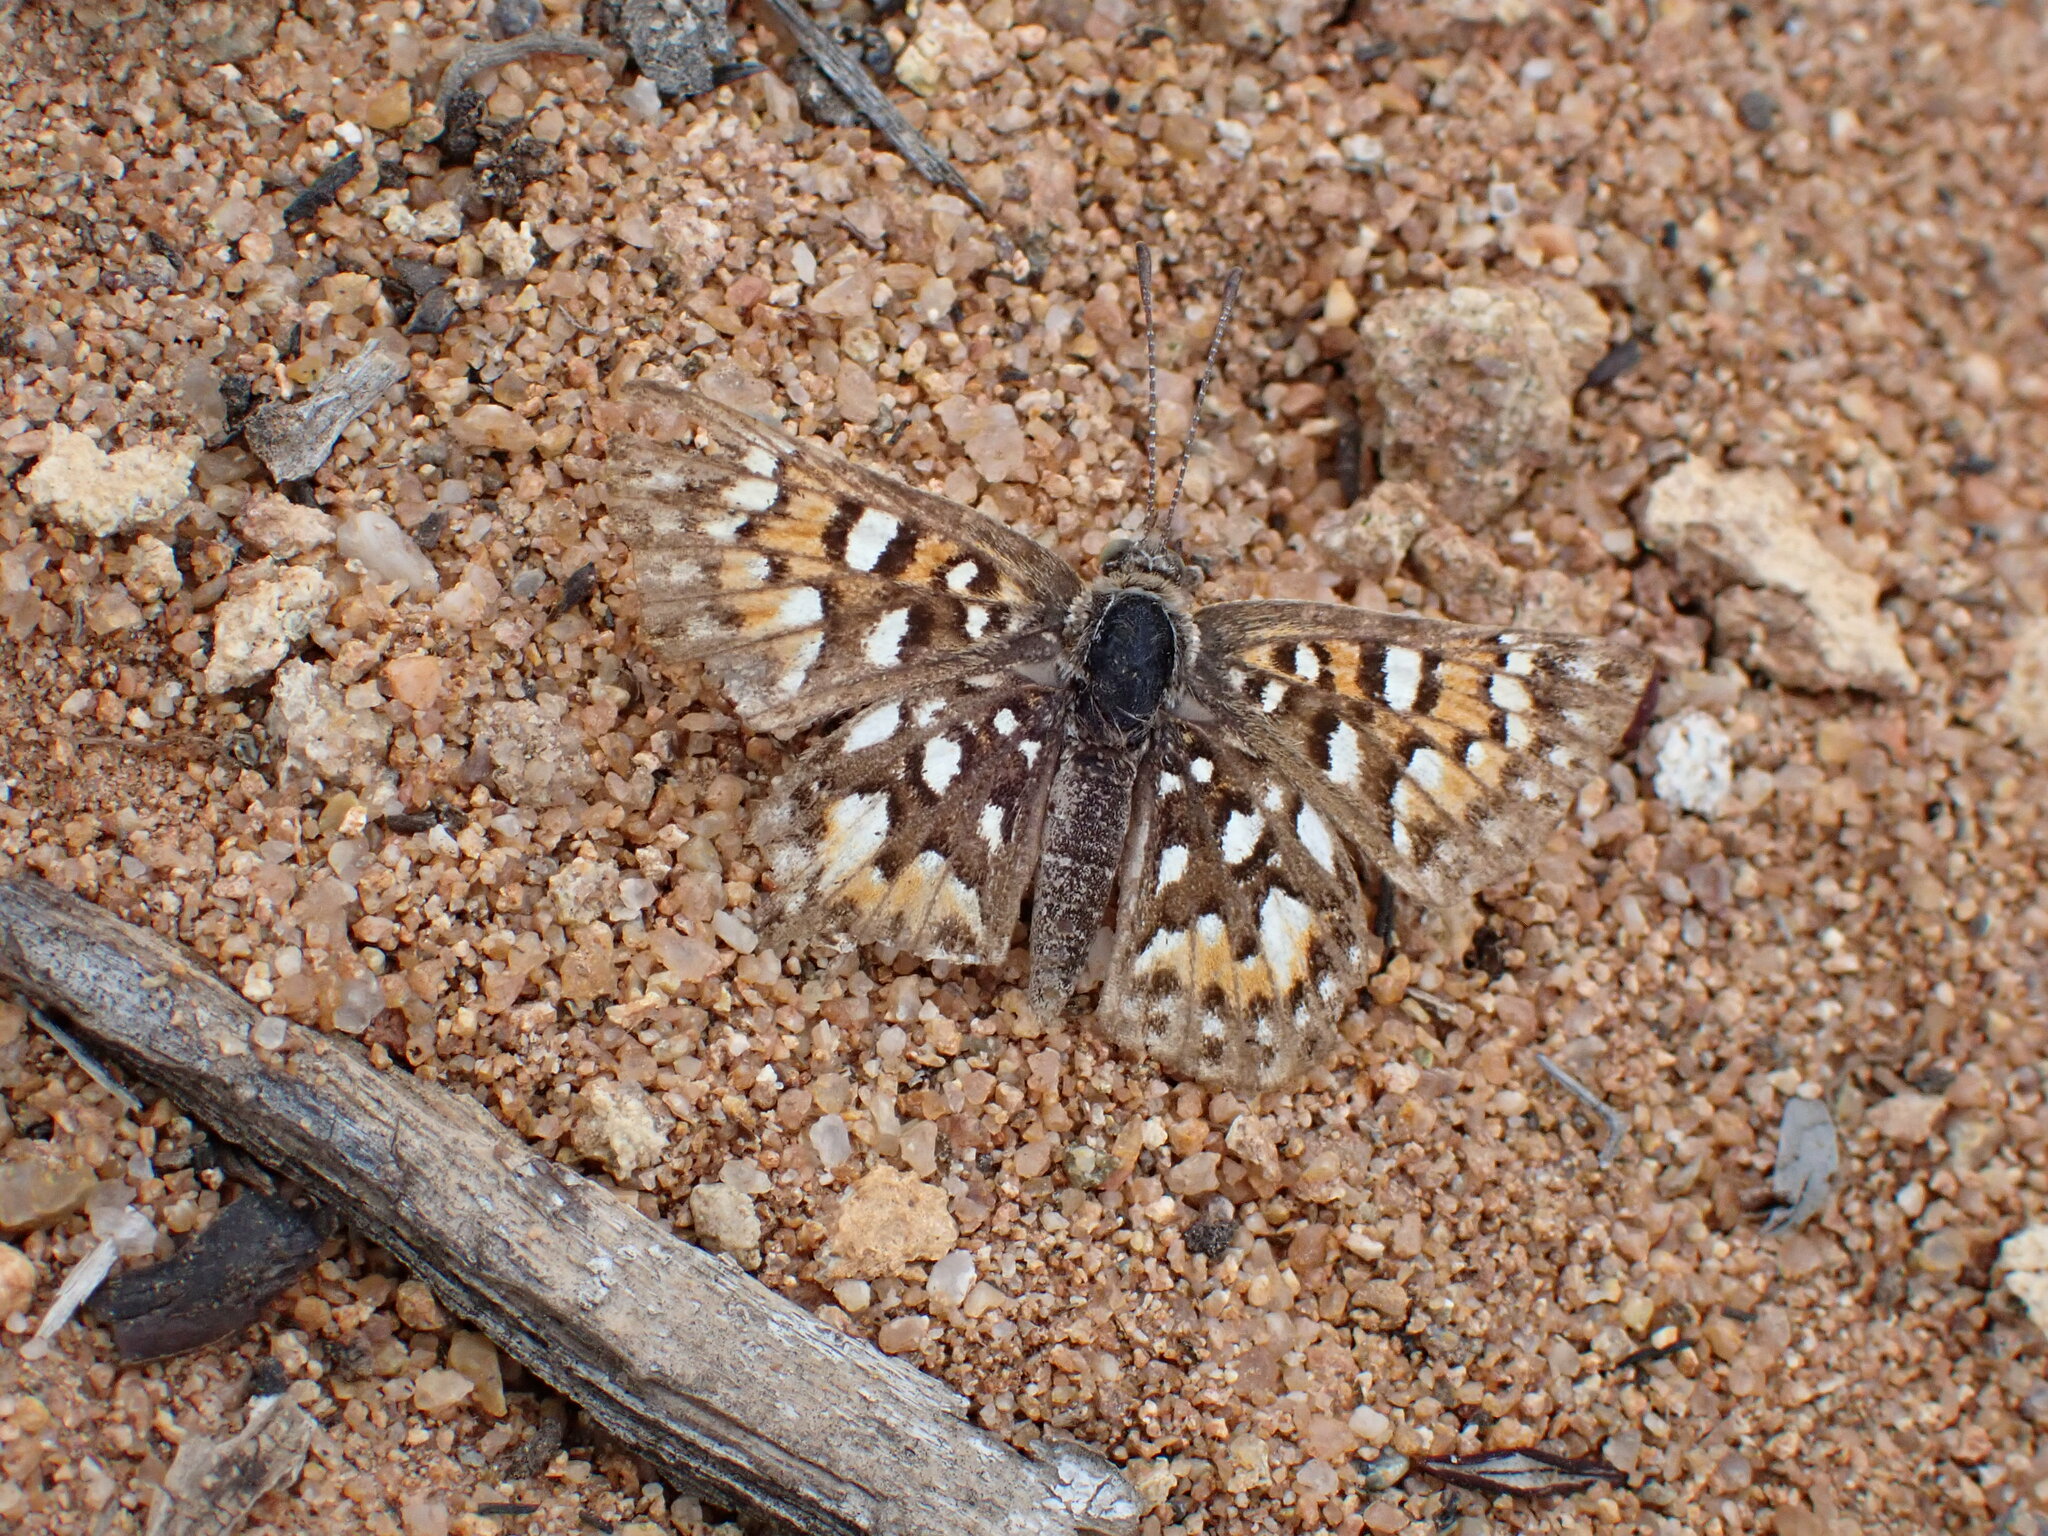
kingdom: Animalia
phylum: Arthropoda
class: Insecta
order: Lepidoptera
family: Riodinidae
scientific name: Riodinidae
